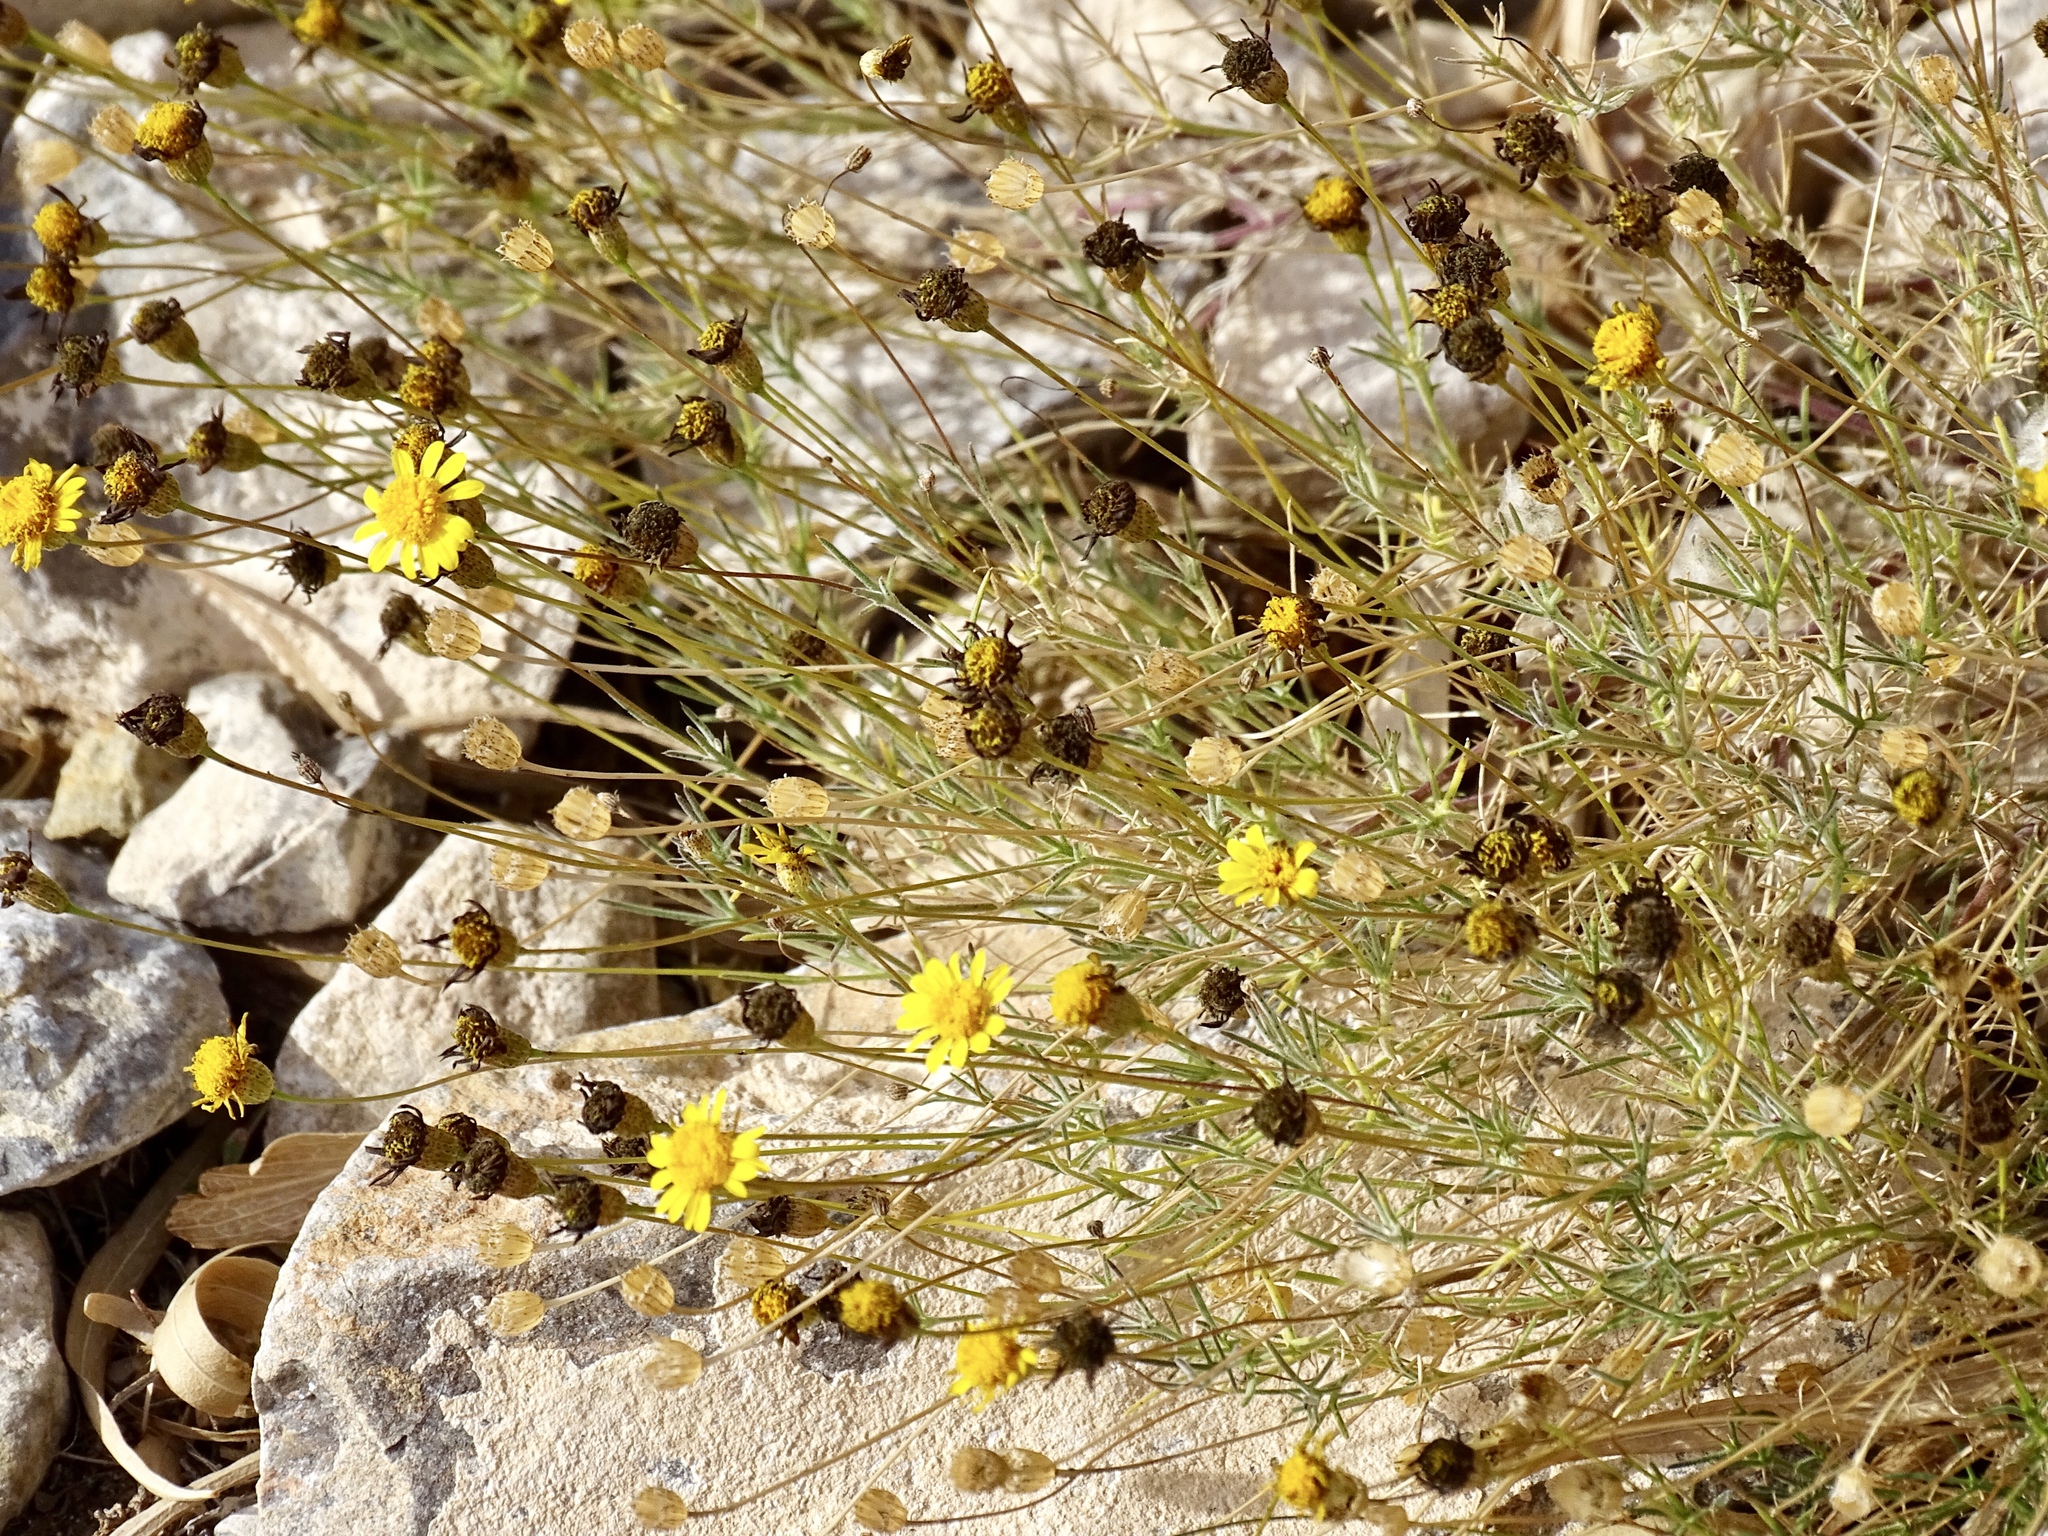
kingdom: Plantae
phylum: Tracheophyta
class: Magnoliopsida
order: Asterales
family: Asteraceae
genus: Thymophylla
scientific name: Thymophylla pentachaeta
